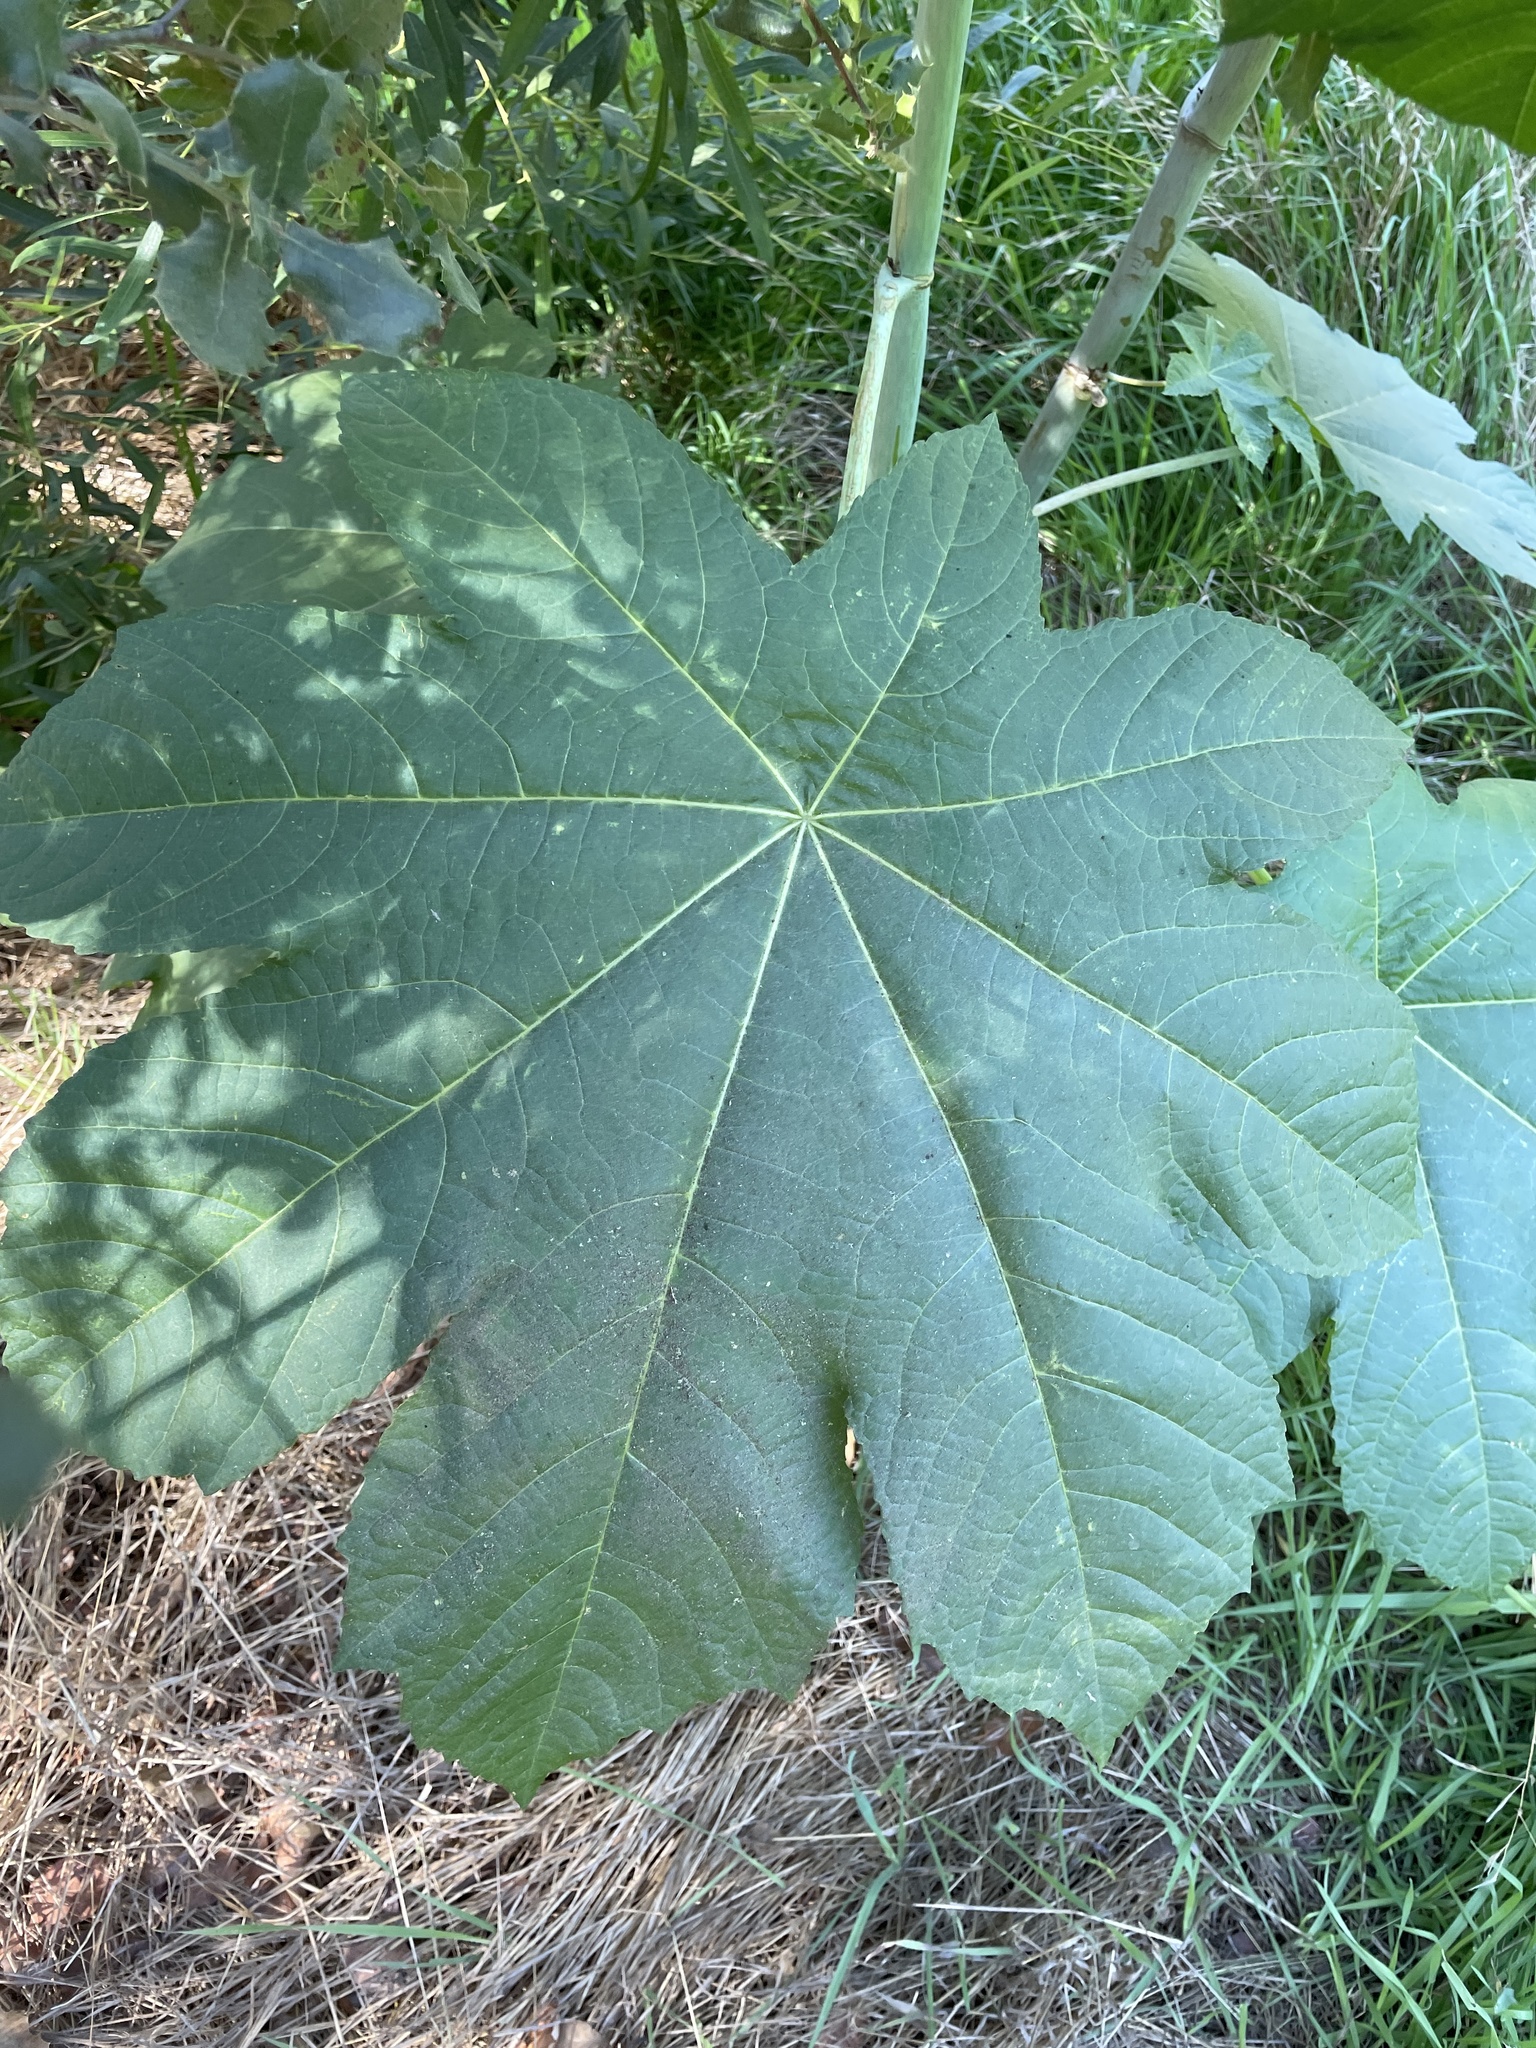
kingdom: Plantae
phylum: Tracheophyta
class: Magnoliopsida
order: Malpighiales
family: Euphorbiaceae
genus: Ricinus
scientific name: Ricinus communis
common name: Castor-oil-plant
